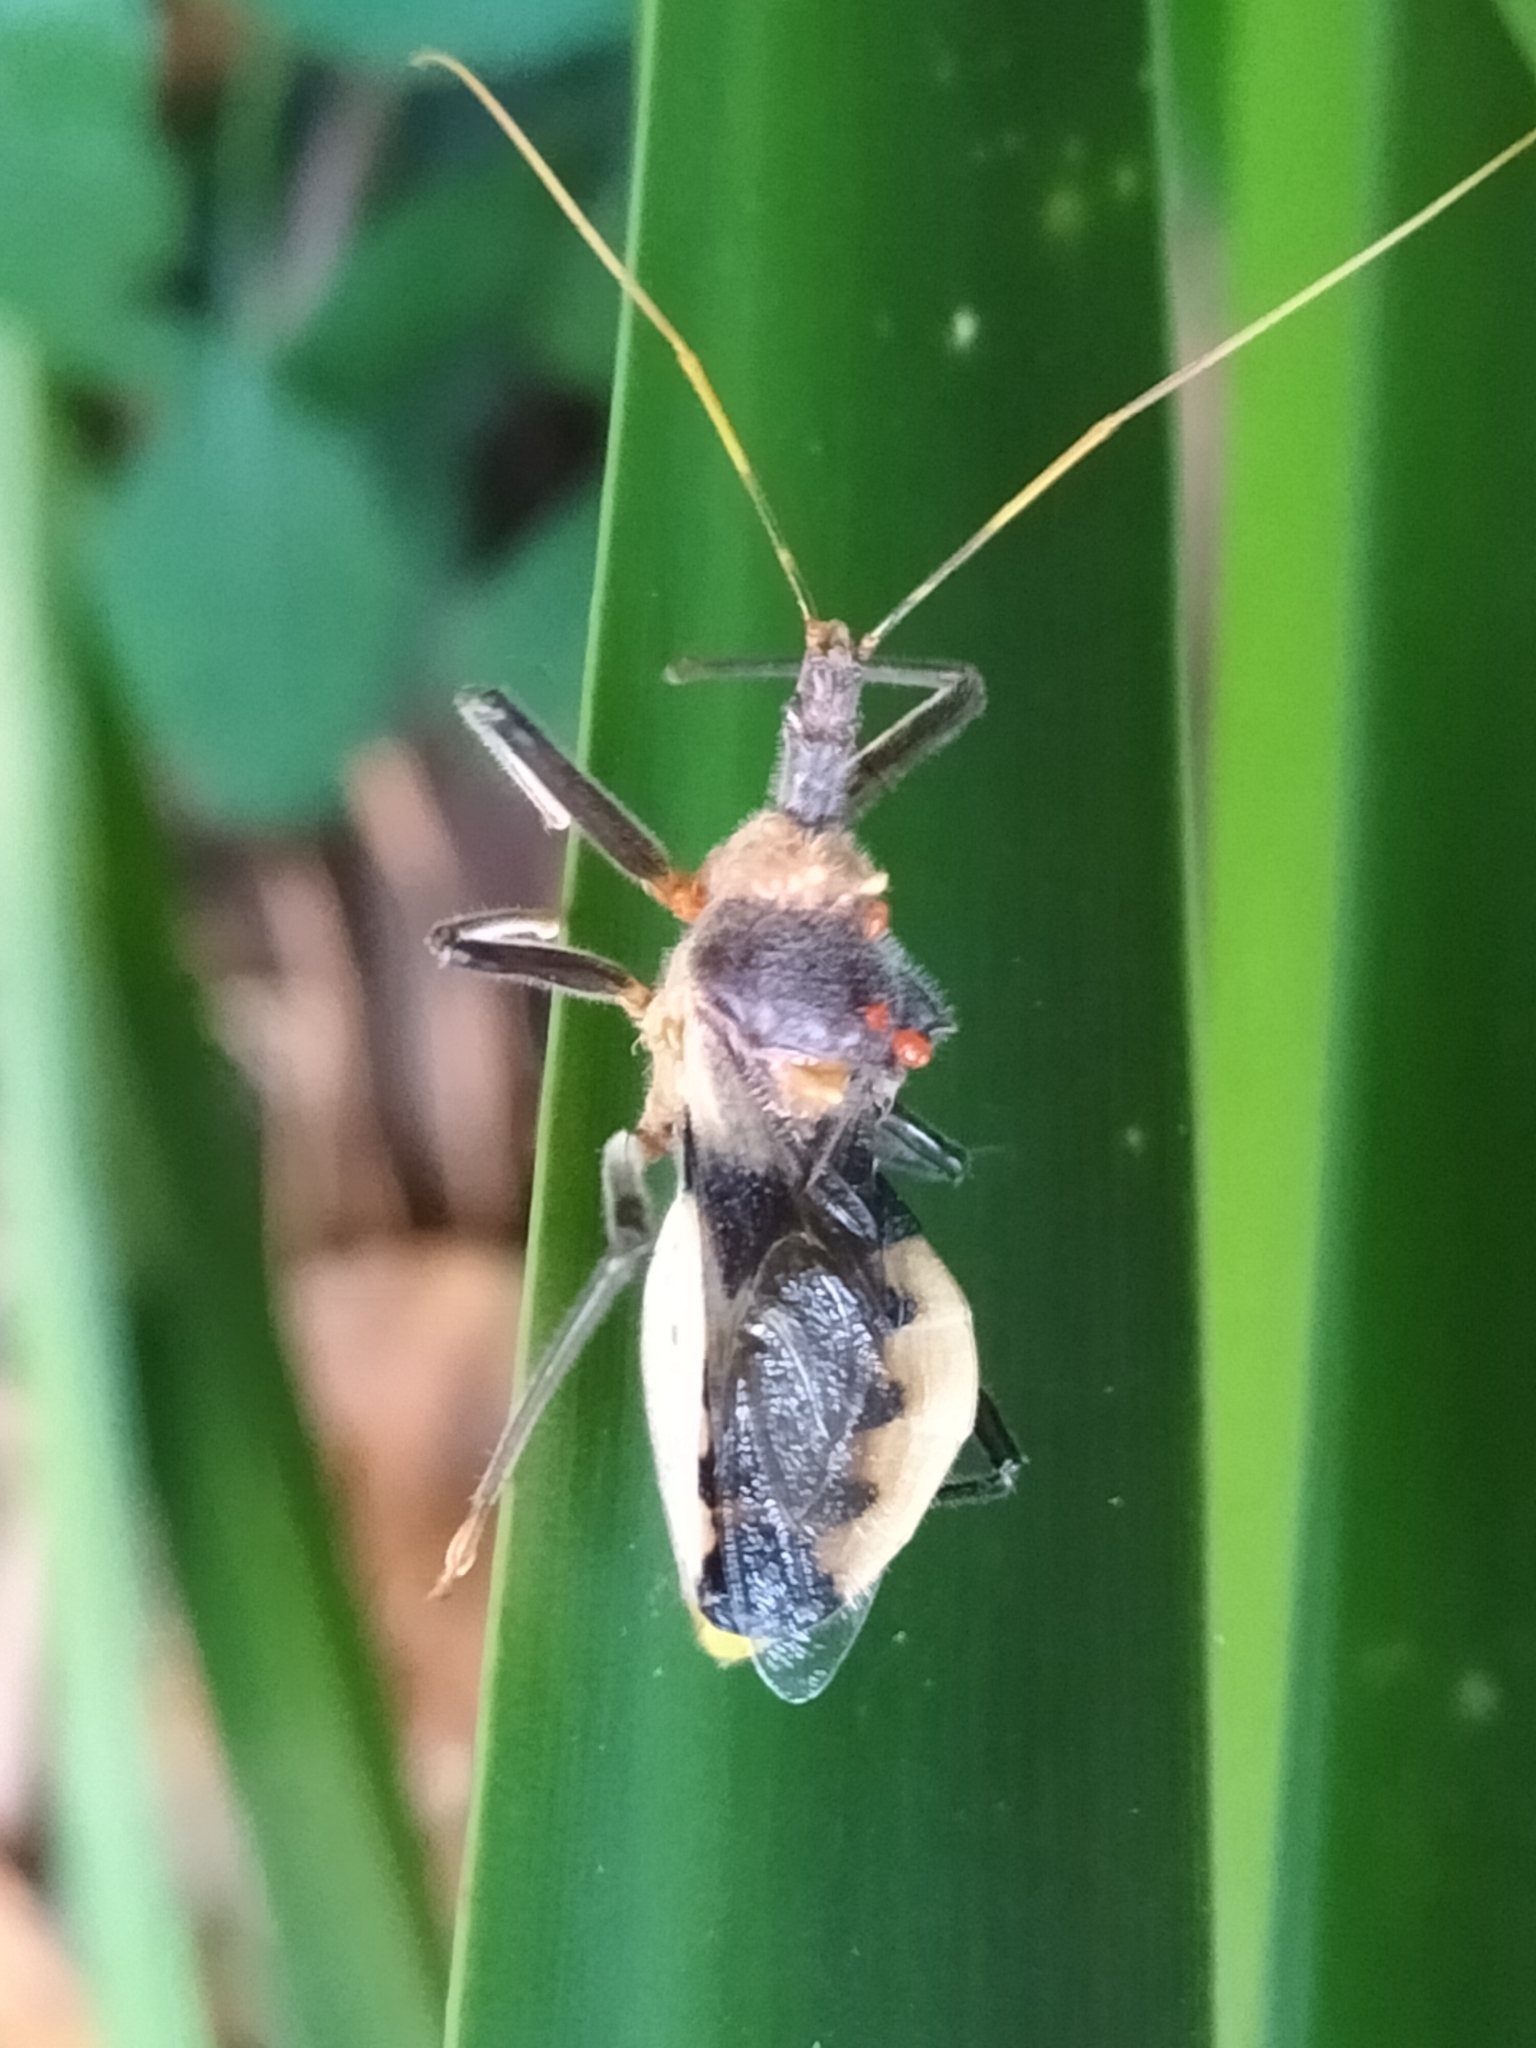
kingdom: Animalia
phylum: Arthropoda
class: Insecta
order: Hemiptera
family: Reduviidae
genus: Pristhesancus
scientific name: Pristhesancus chlamydatus
